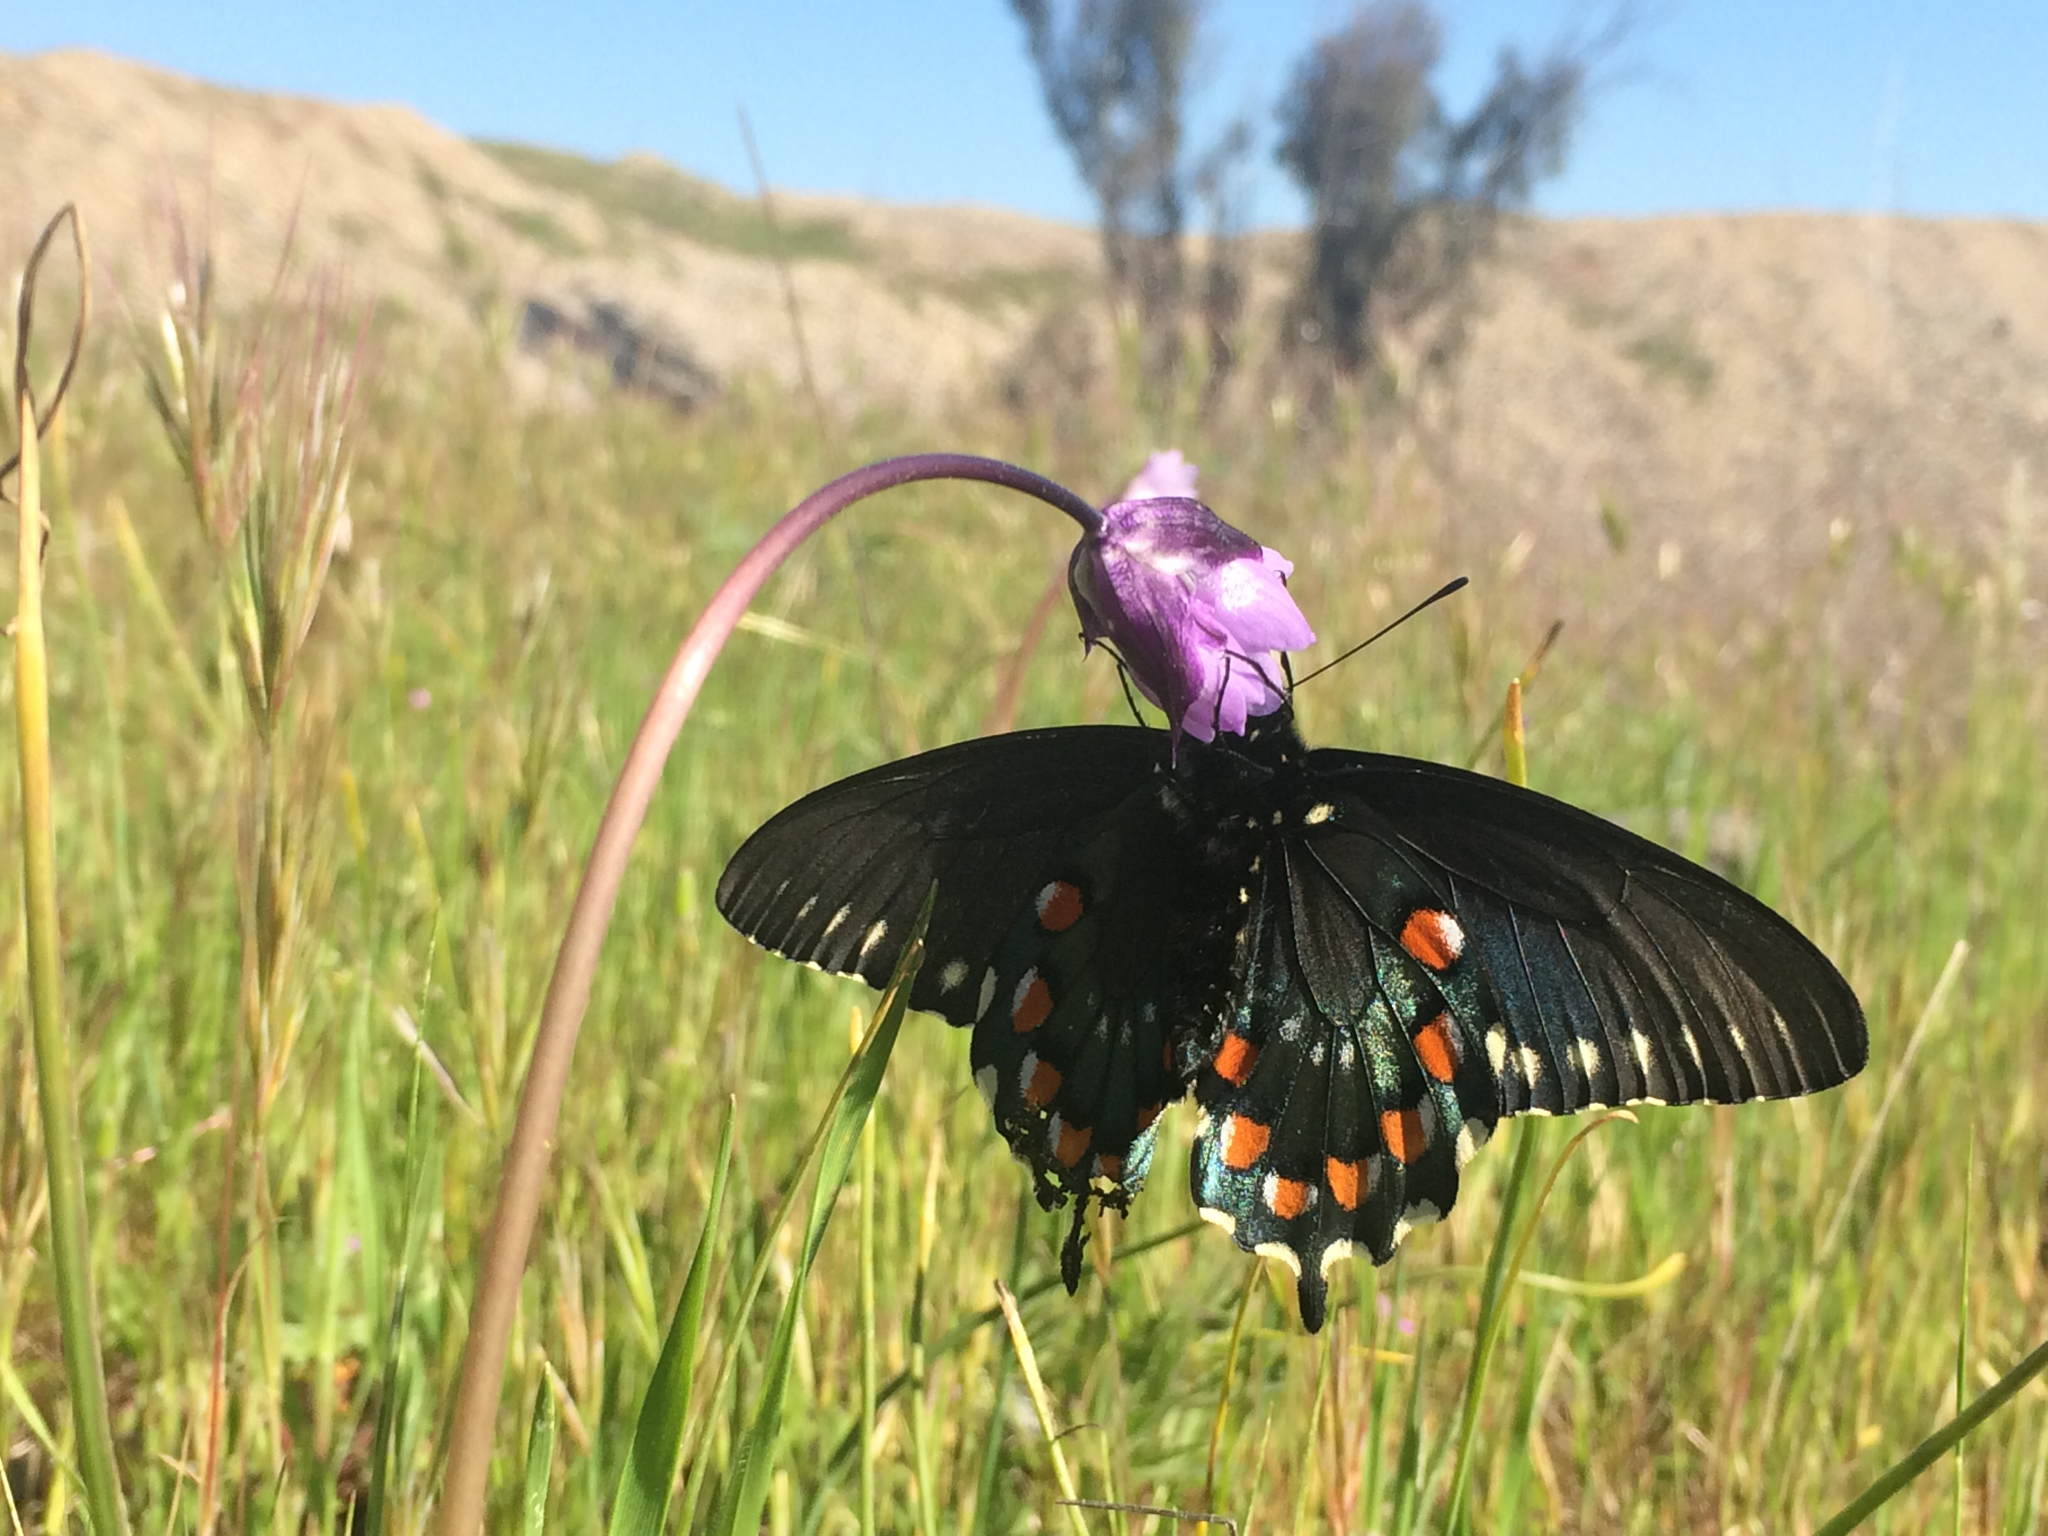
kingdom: Animalia
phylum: Arthropoda
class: Insecta
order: Lepidoptera
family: Papilionidae
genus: Battus
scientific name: Battus philenor
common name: Pipevine swallowtail
